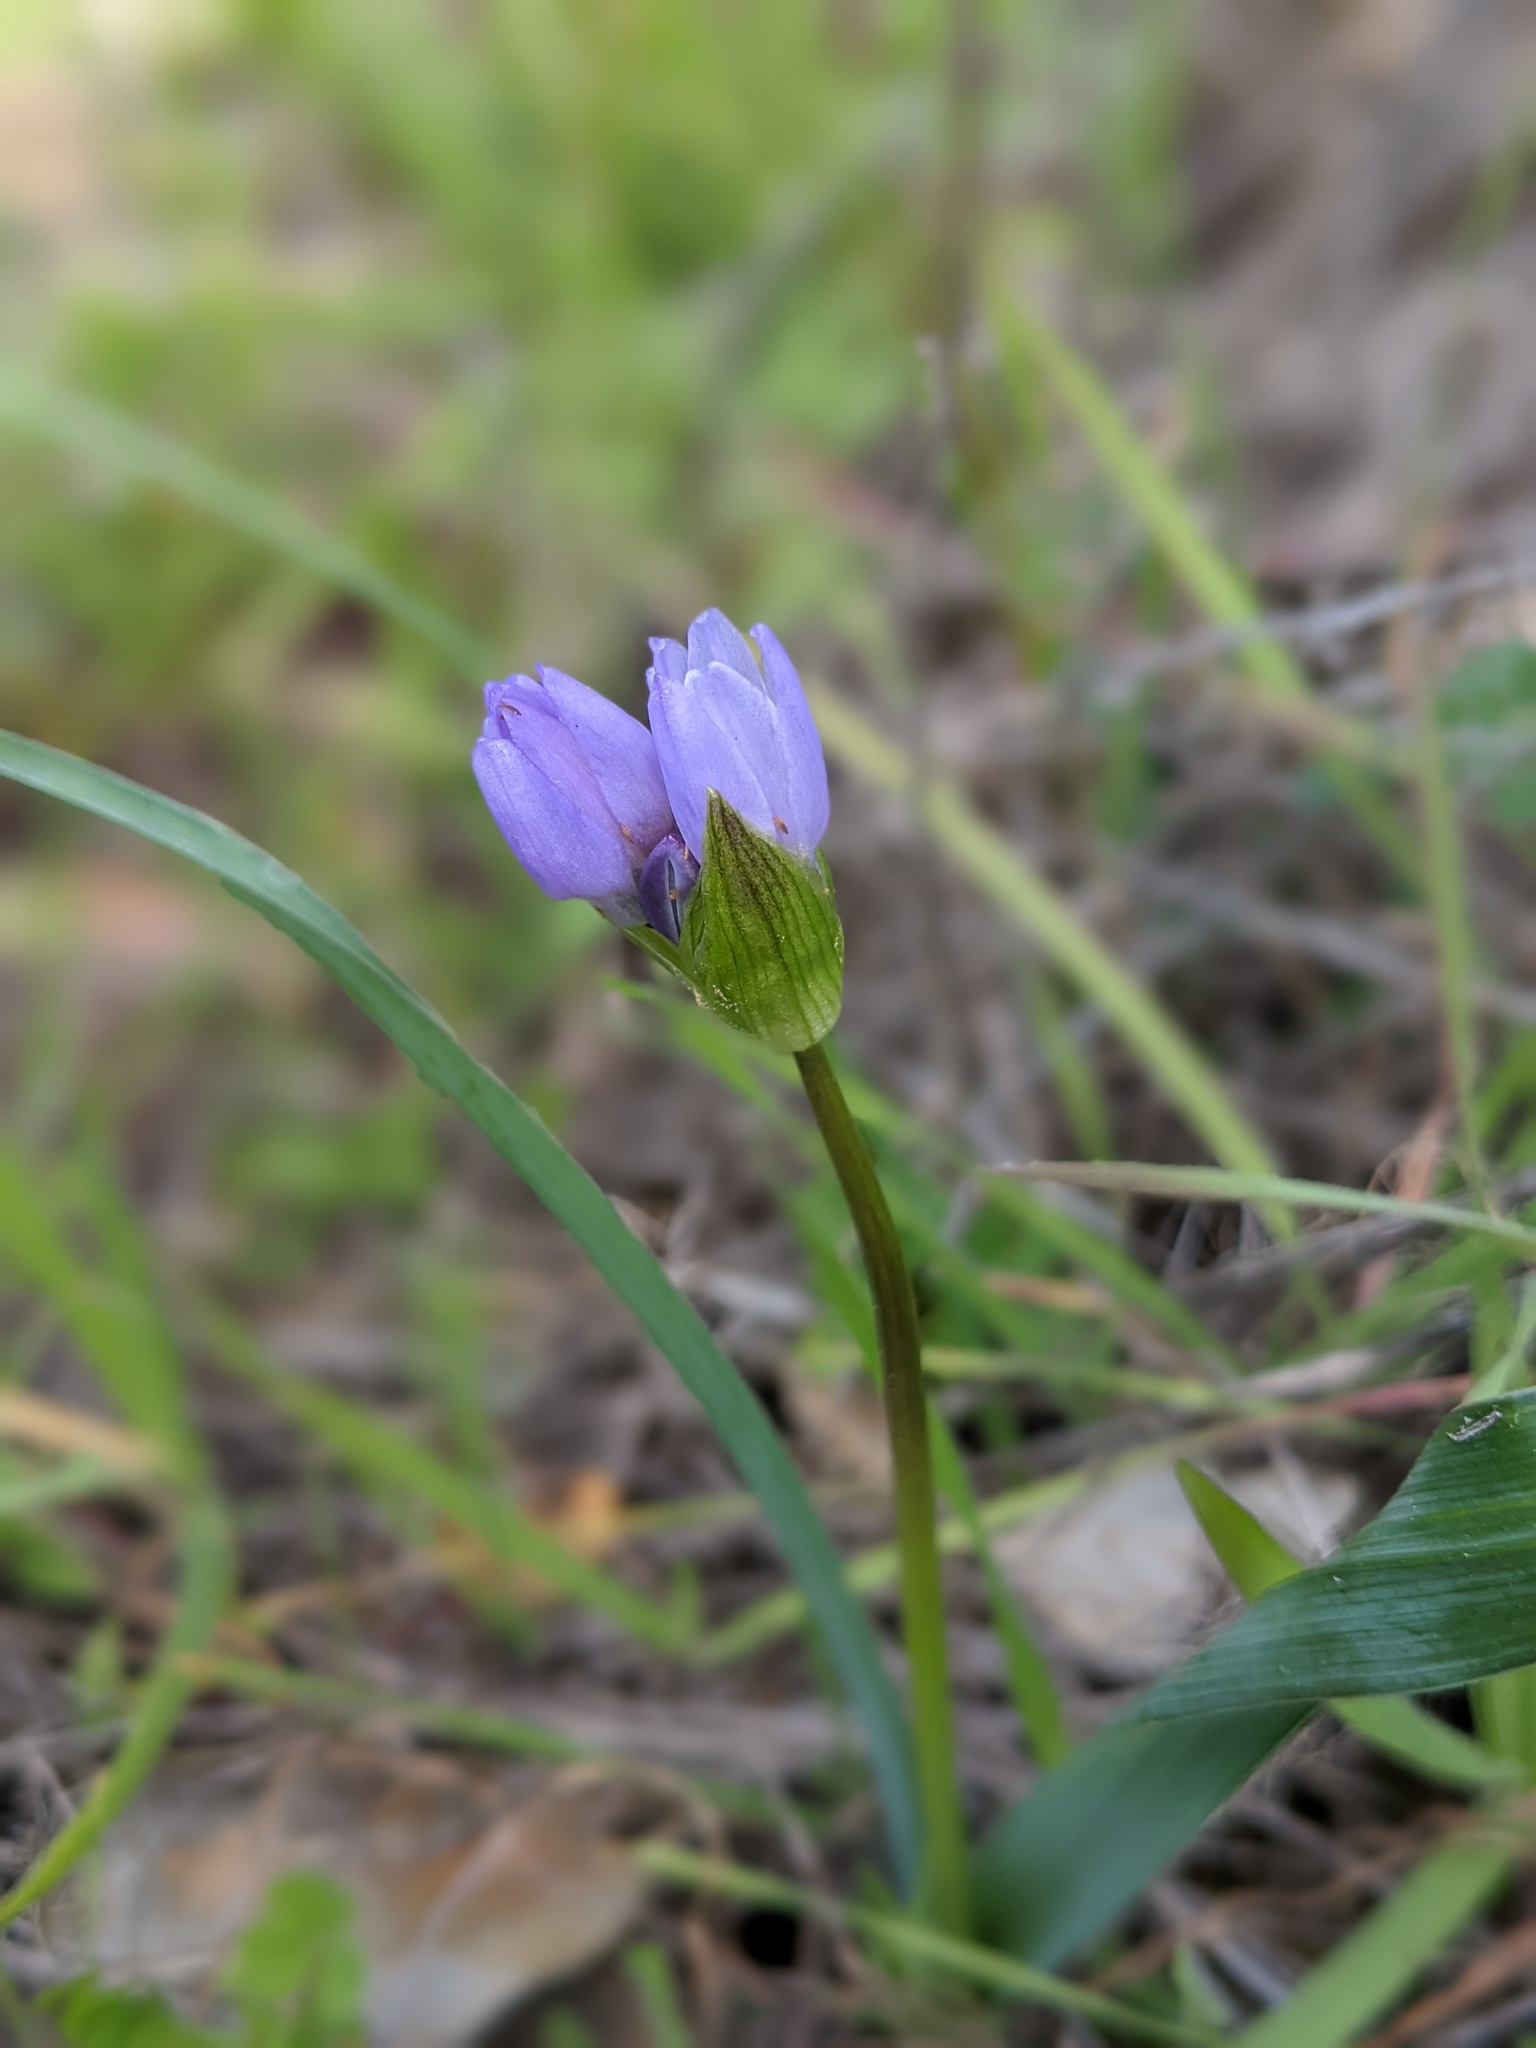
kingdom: Plantae
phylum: Tracheophyta
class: Liliopsida
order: Asparagales
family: Asparagaceae
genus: Dipterostemon
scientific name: Dipterostemon capitatus
